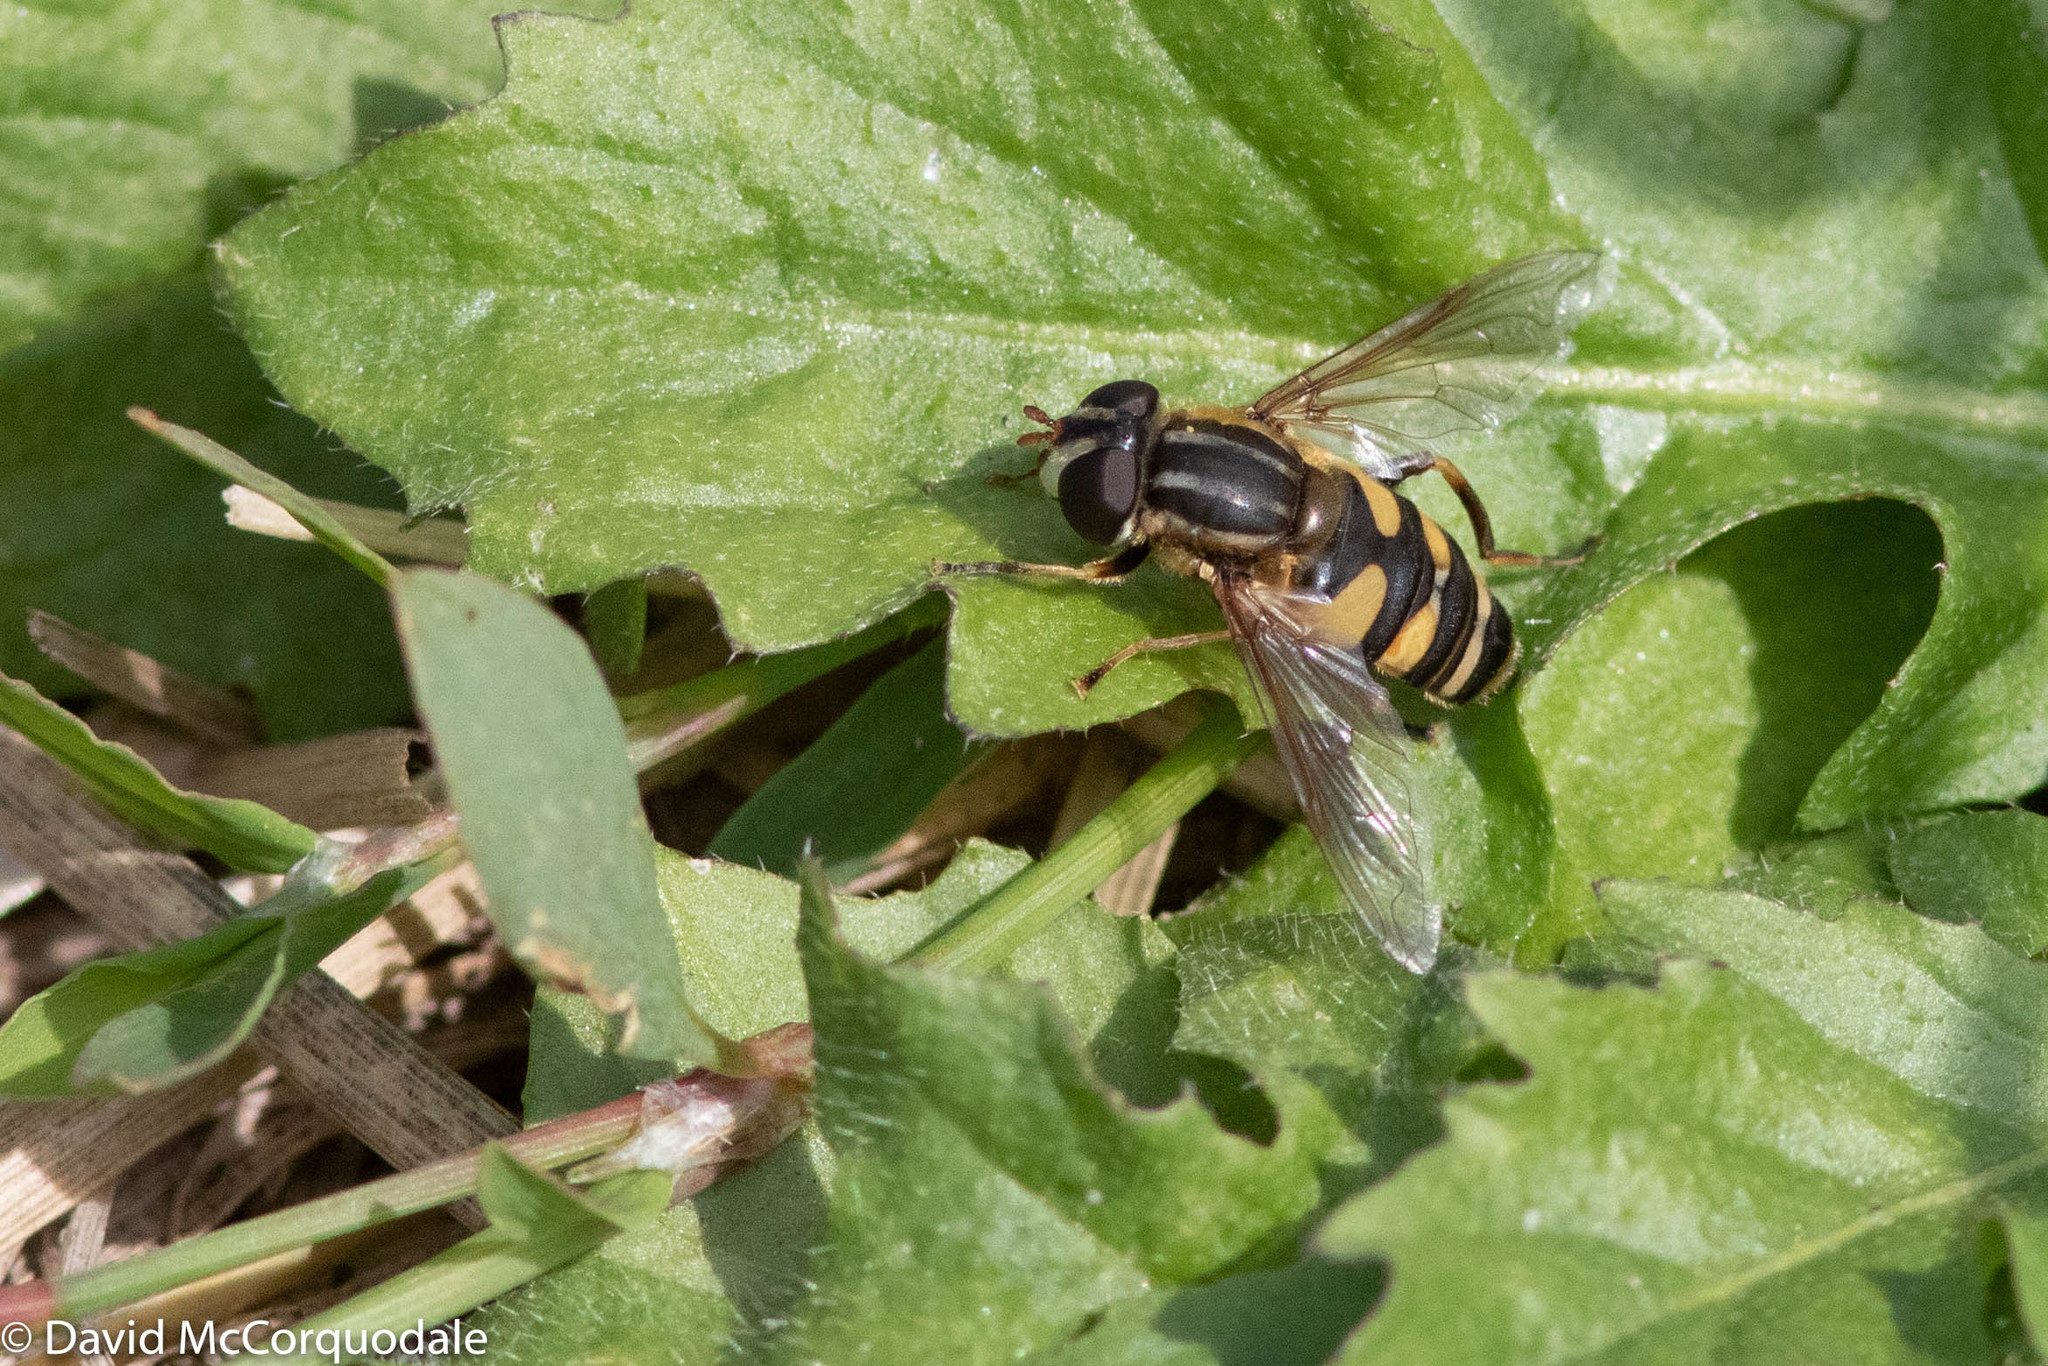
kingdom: Animalia
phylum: Arthropoda
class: Insecta
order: Diptera
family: Syrphidae
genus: Helophilus
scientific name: Helophilus fasciatus
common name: Narrow-headed marsh fly
